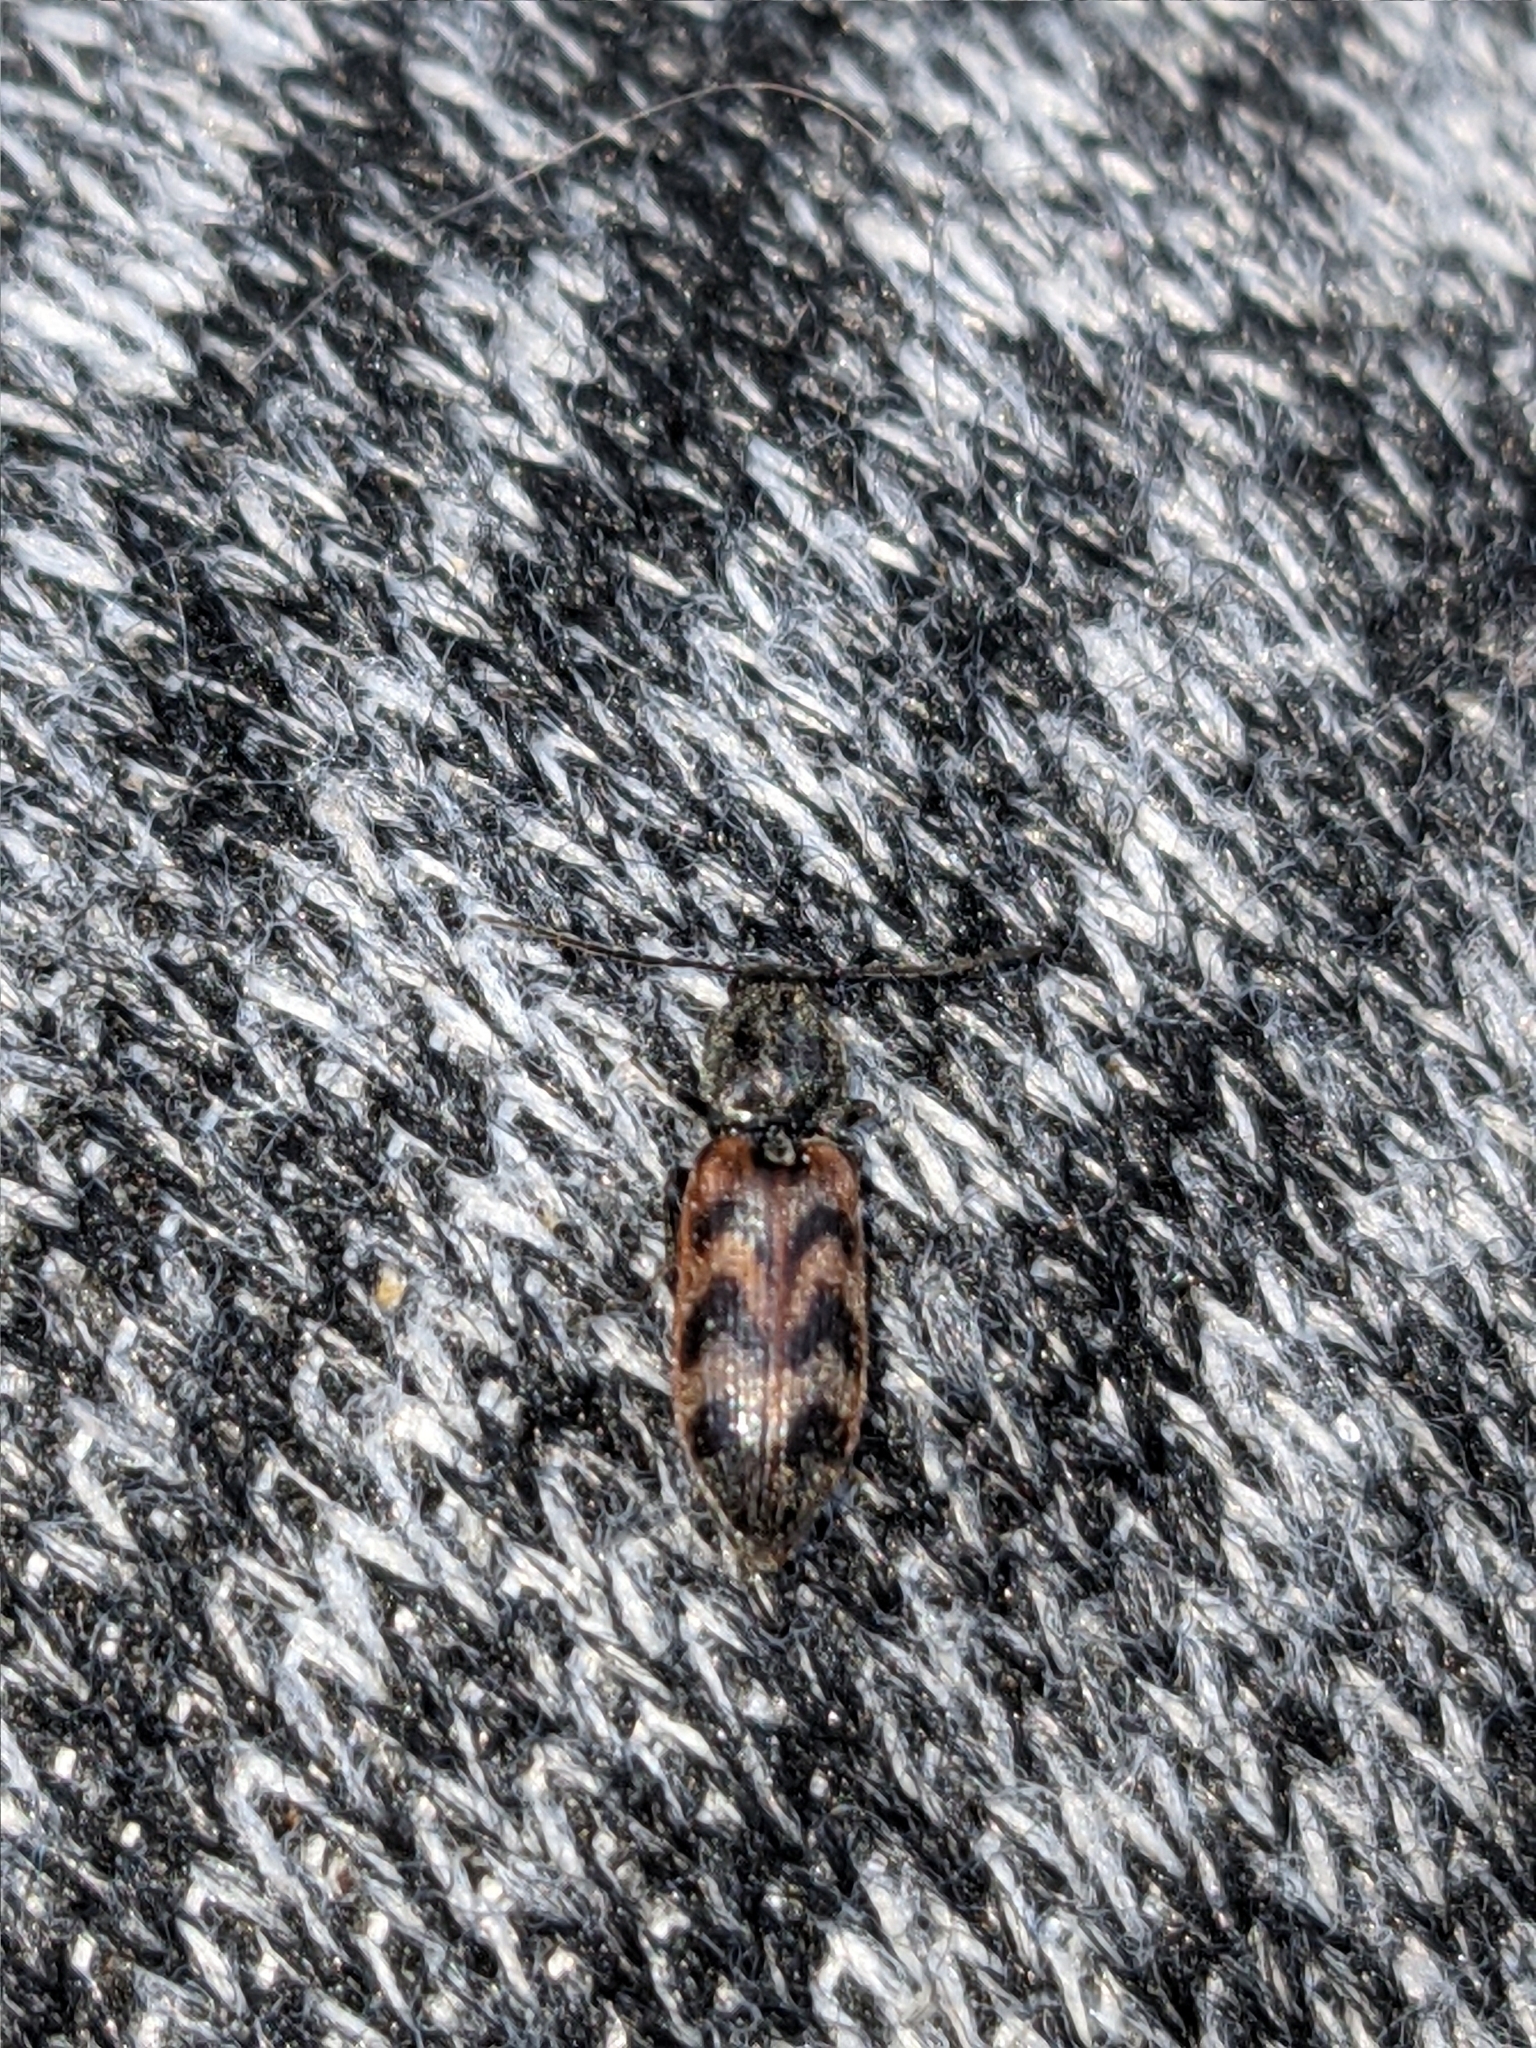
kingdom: Animalia
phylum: Arthropoda
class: Insecta
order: Coleoptera
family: Elateridae
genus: Pseudanostirus
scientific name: Pseudanostirus triundulatus
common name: Three-spotted click beetle
